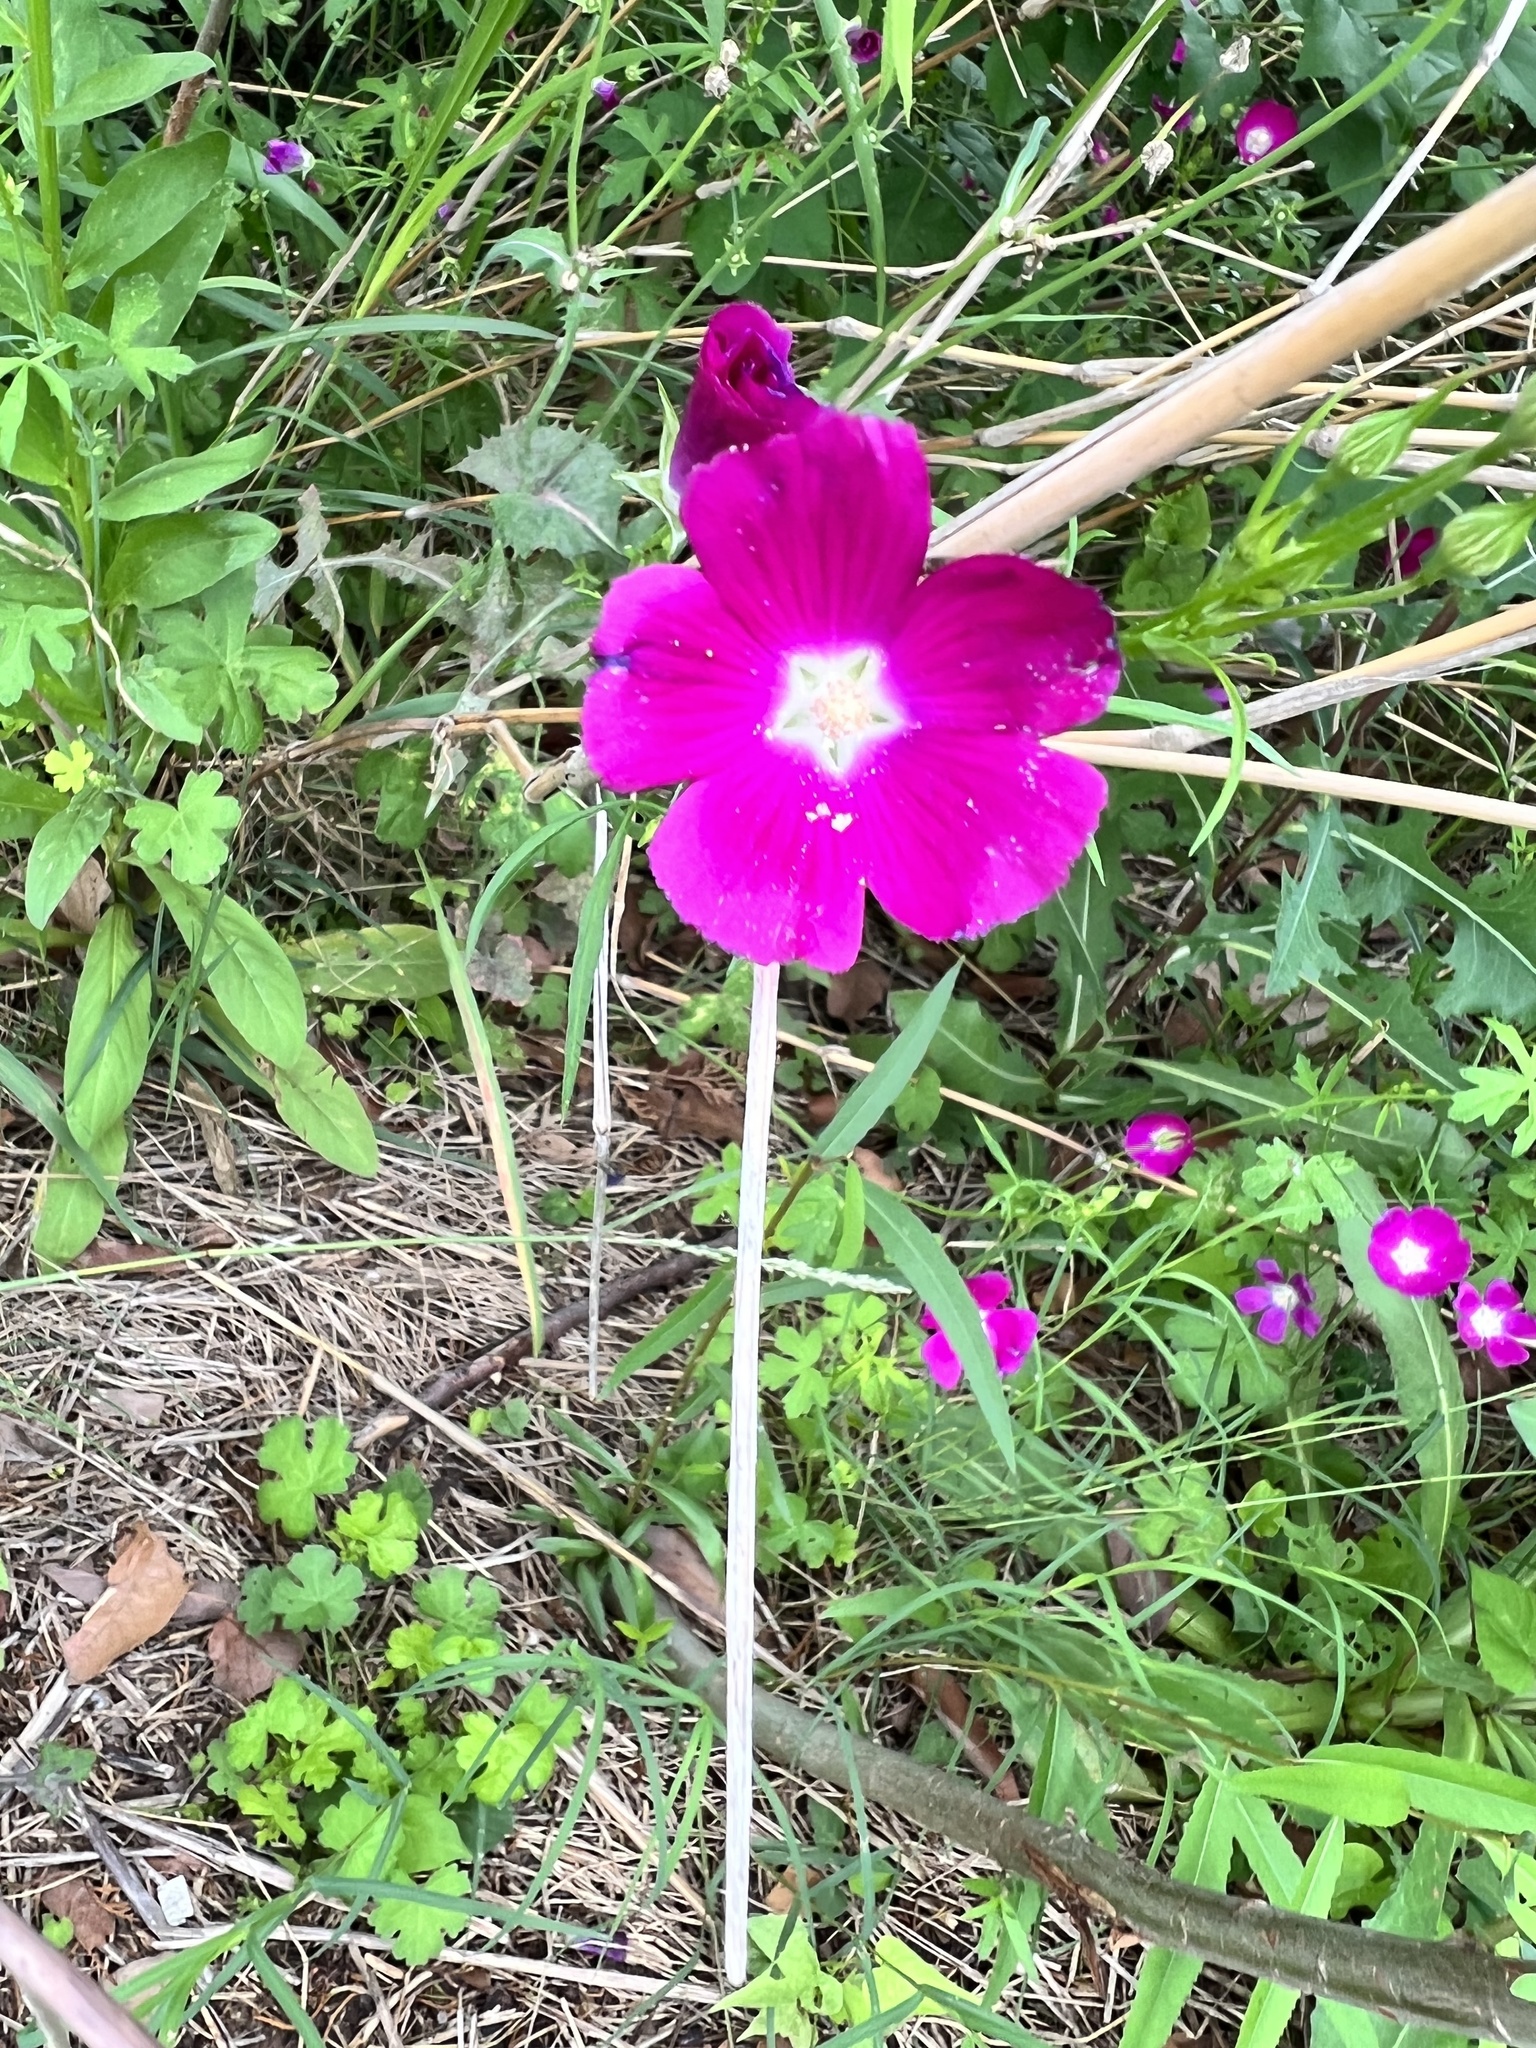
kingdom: Plantae
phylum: Tracheophyta
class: Magnoliopsida
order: Malvales
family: Malvaceae
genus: Callirhoe
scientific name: Callirhoe leiocarpa
